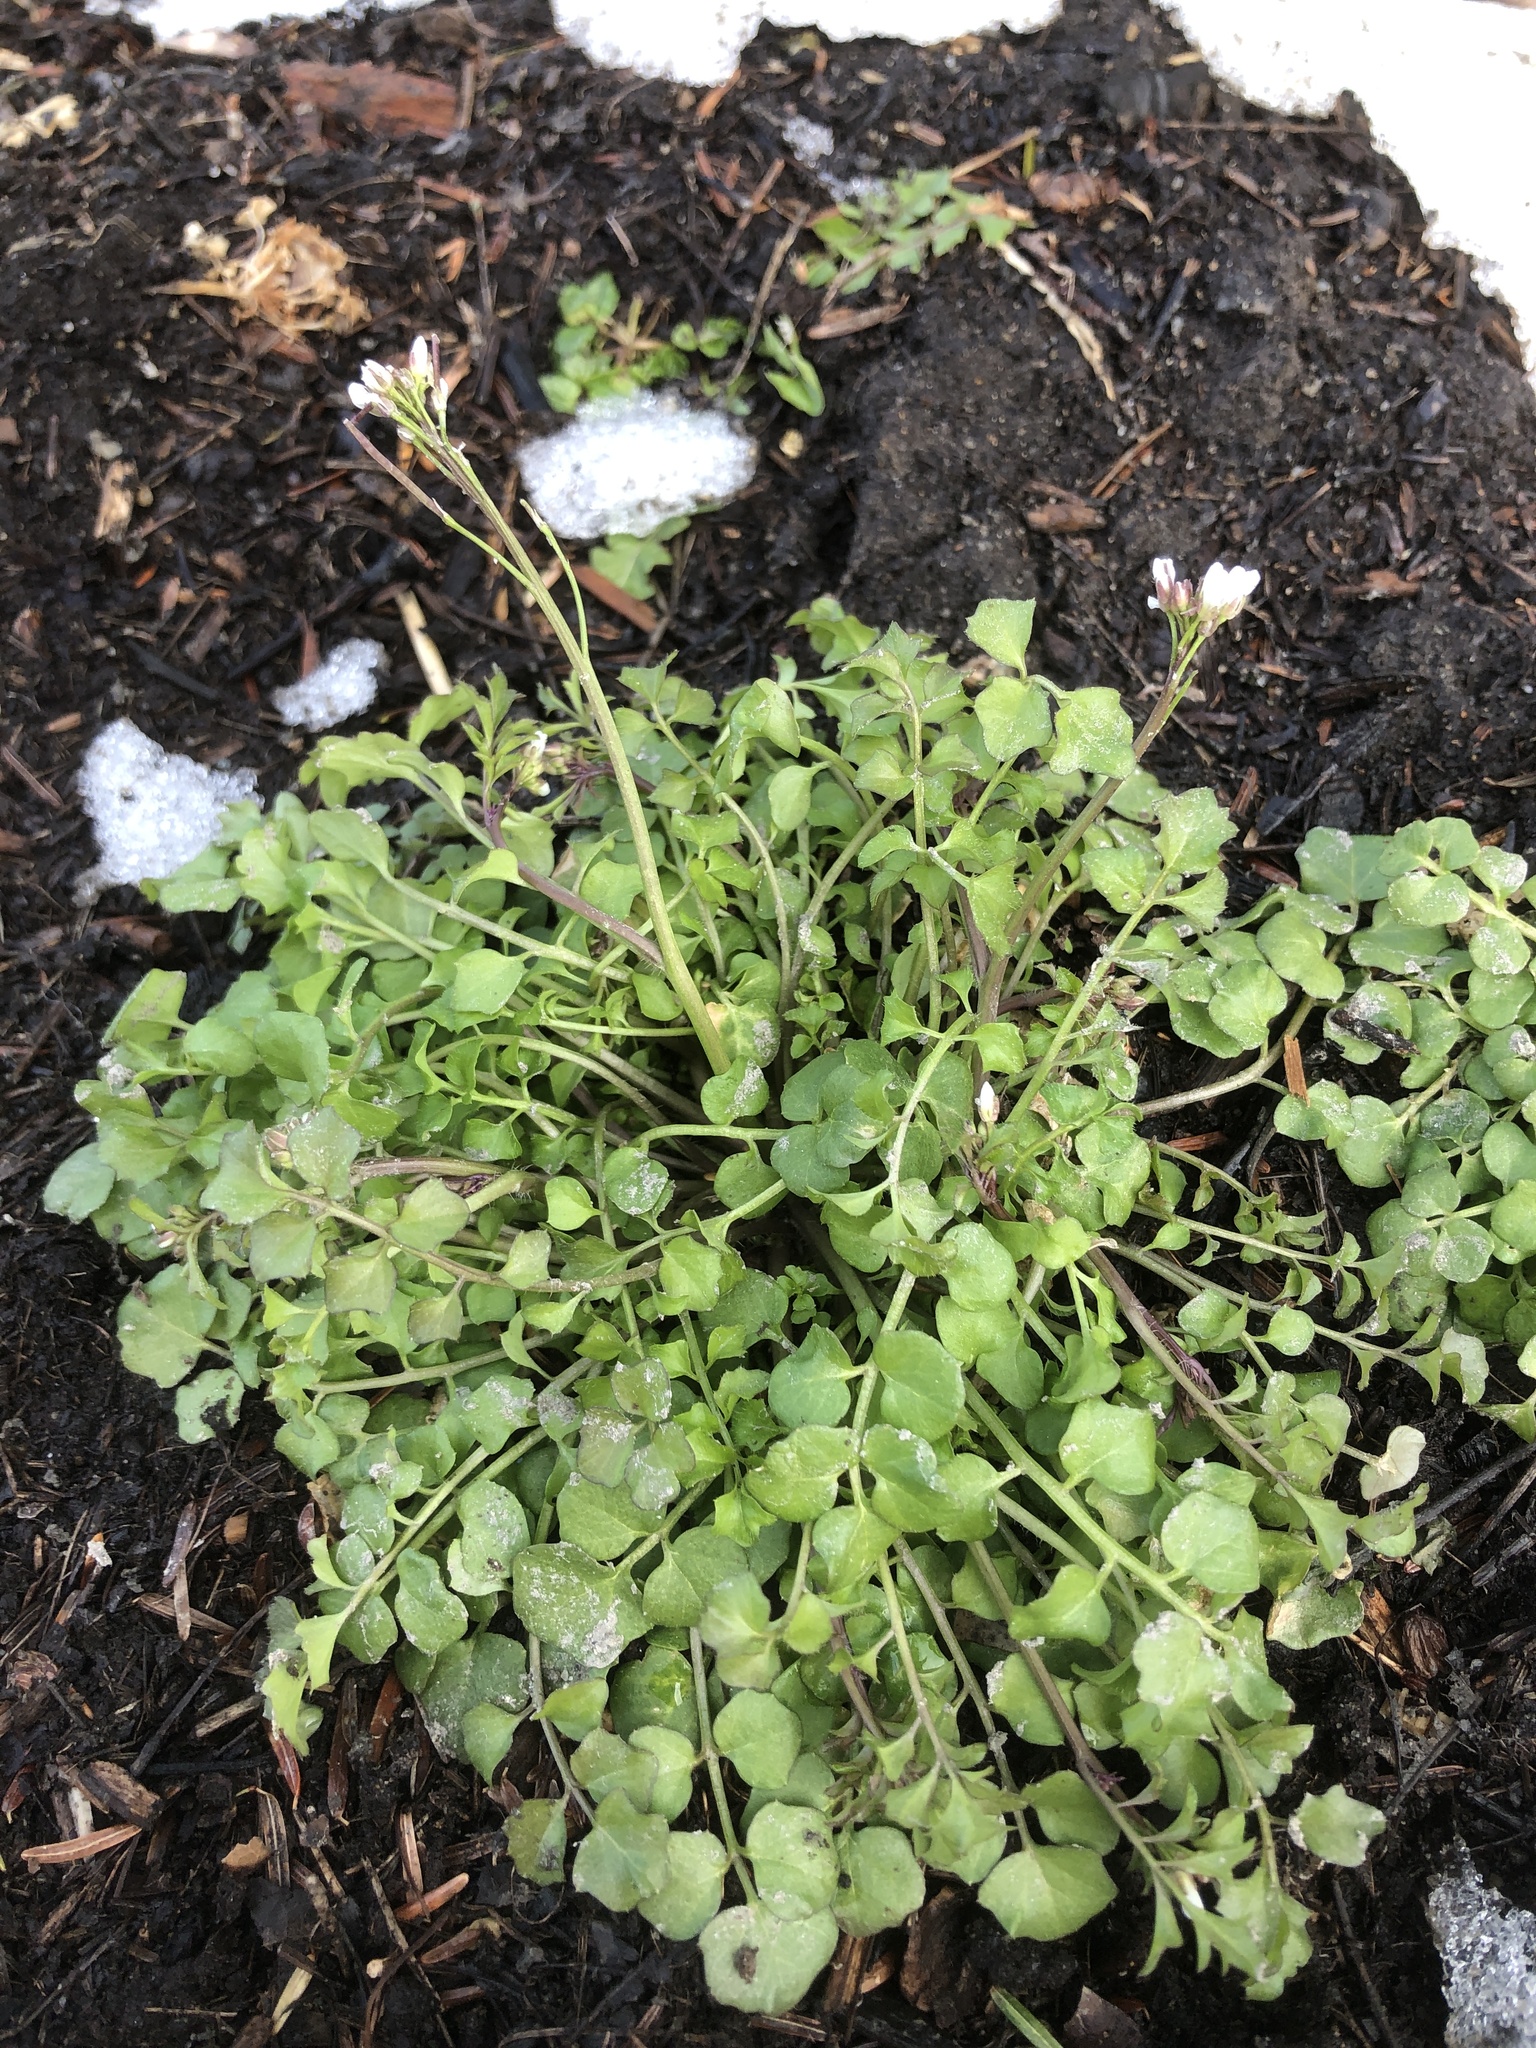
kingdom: Plantae
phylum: Tracheophyta
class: Magnoliopsida
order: Brassicales
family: Brassicaceae
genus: Cardamine
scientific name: Cardamine hirsuta
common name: Hairy bittercress
